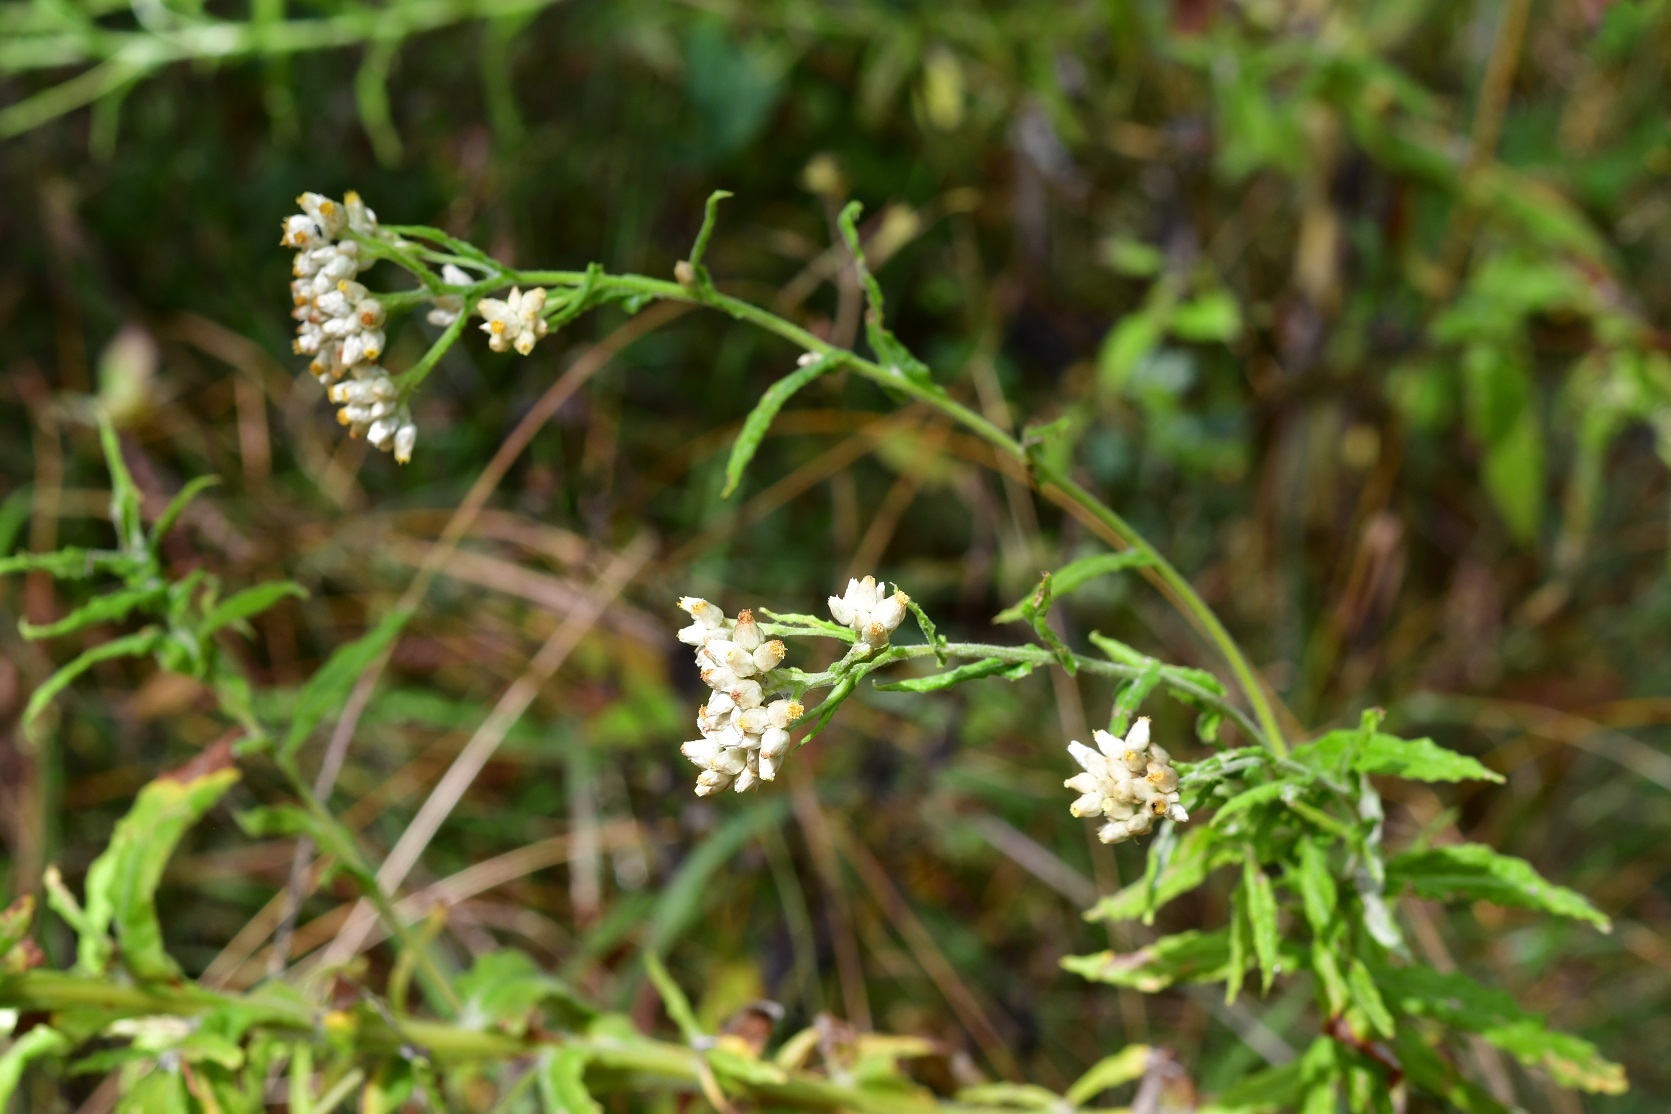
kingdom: Plantae
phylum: Tracheophyta
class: Magnoliopsida
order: Asterales
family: Asteraceae
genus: Pseudognaphalium
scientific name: Pseudognaphalium chartaceum
